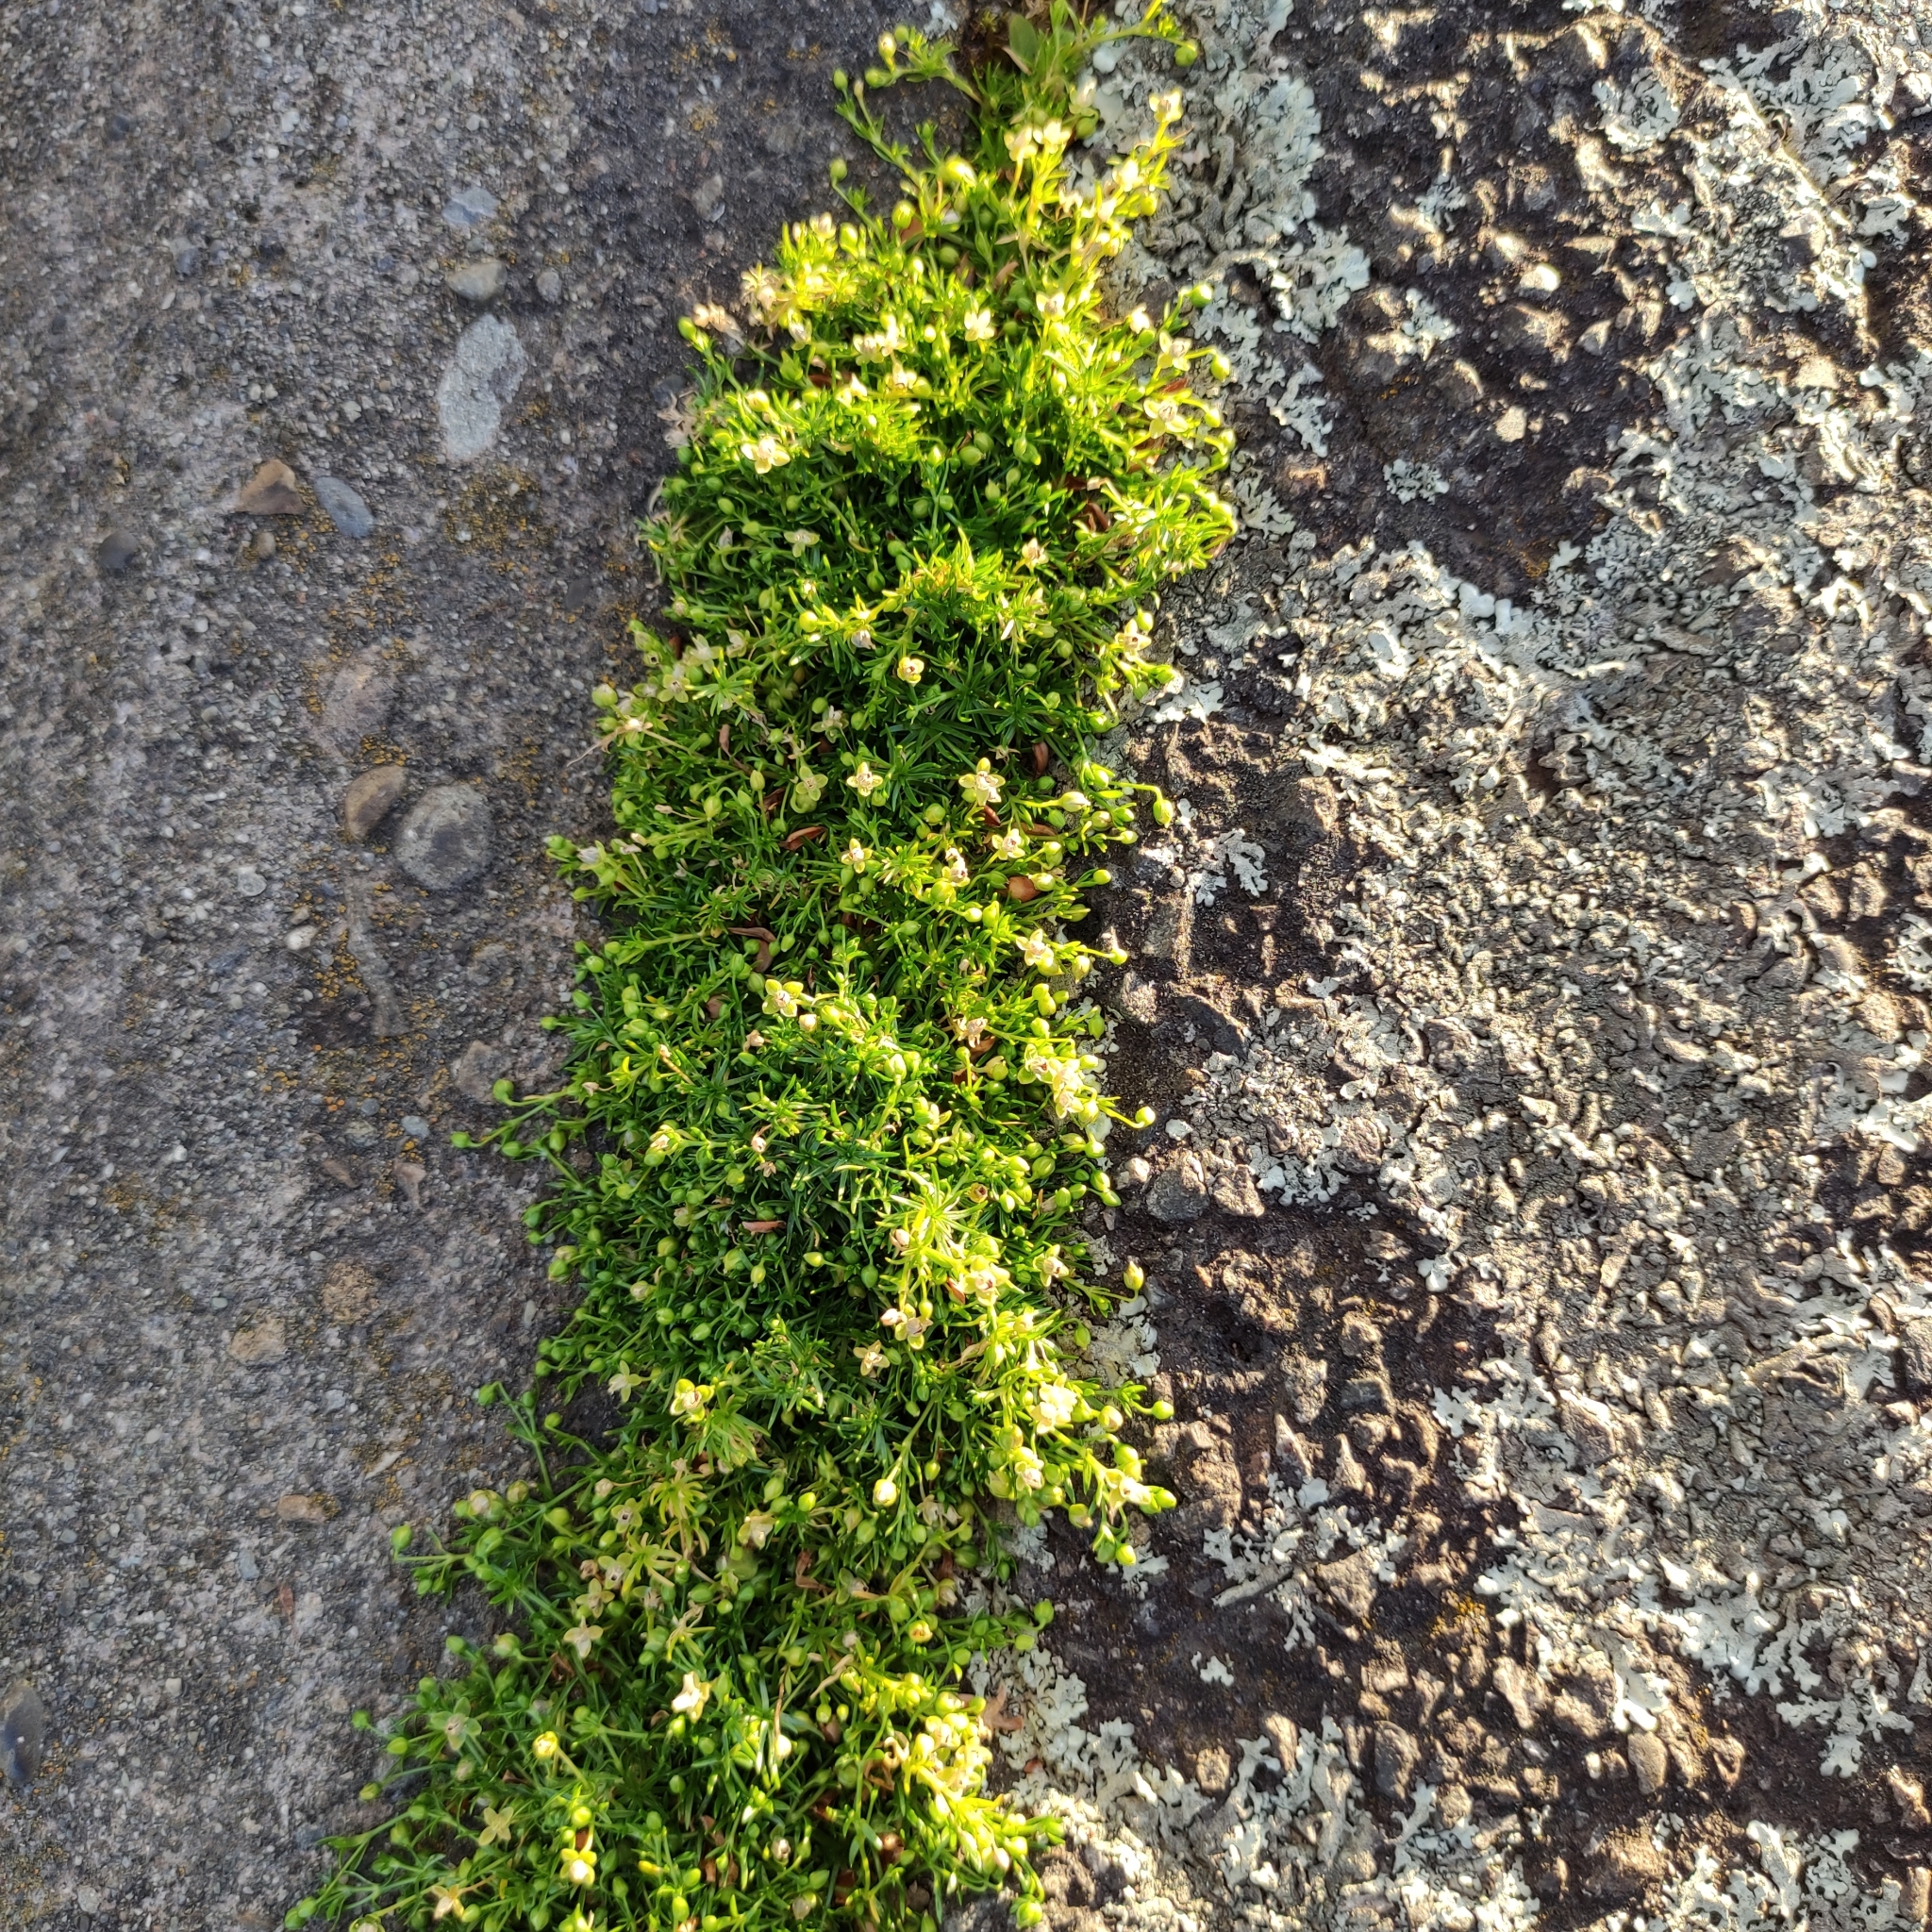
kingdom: Plantae
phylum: Tracheophyta
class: Magnoliopsida
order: Caryophyllales
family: Caryophyllaceae
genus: Sagina
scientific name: Sagina procumbens
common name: Procumbent pearlwort
